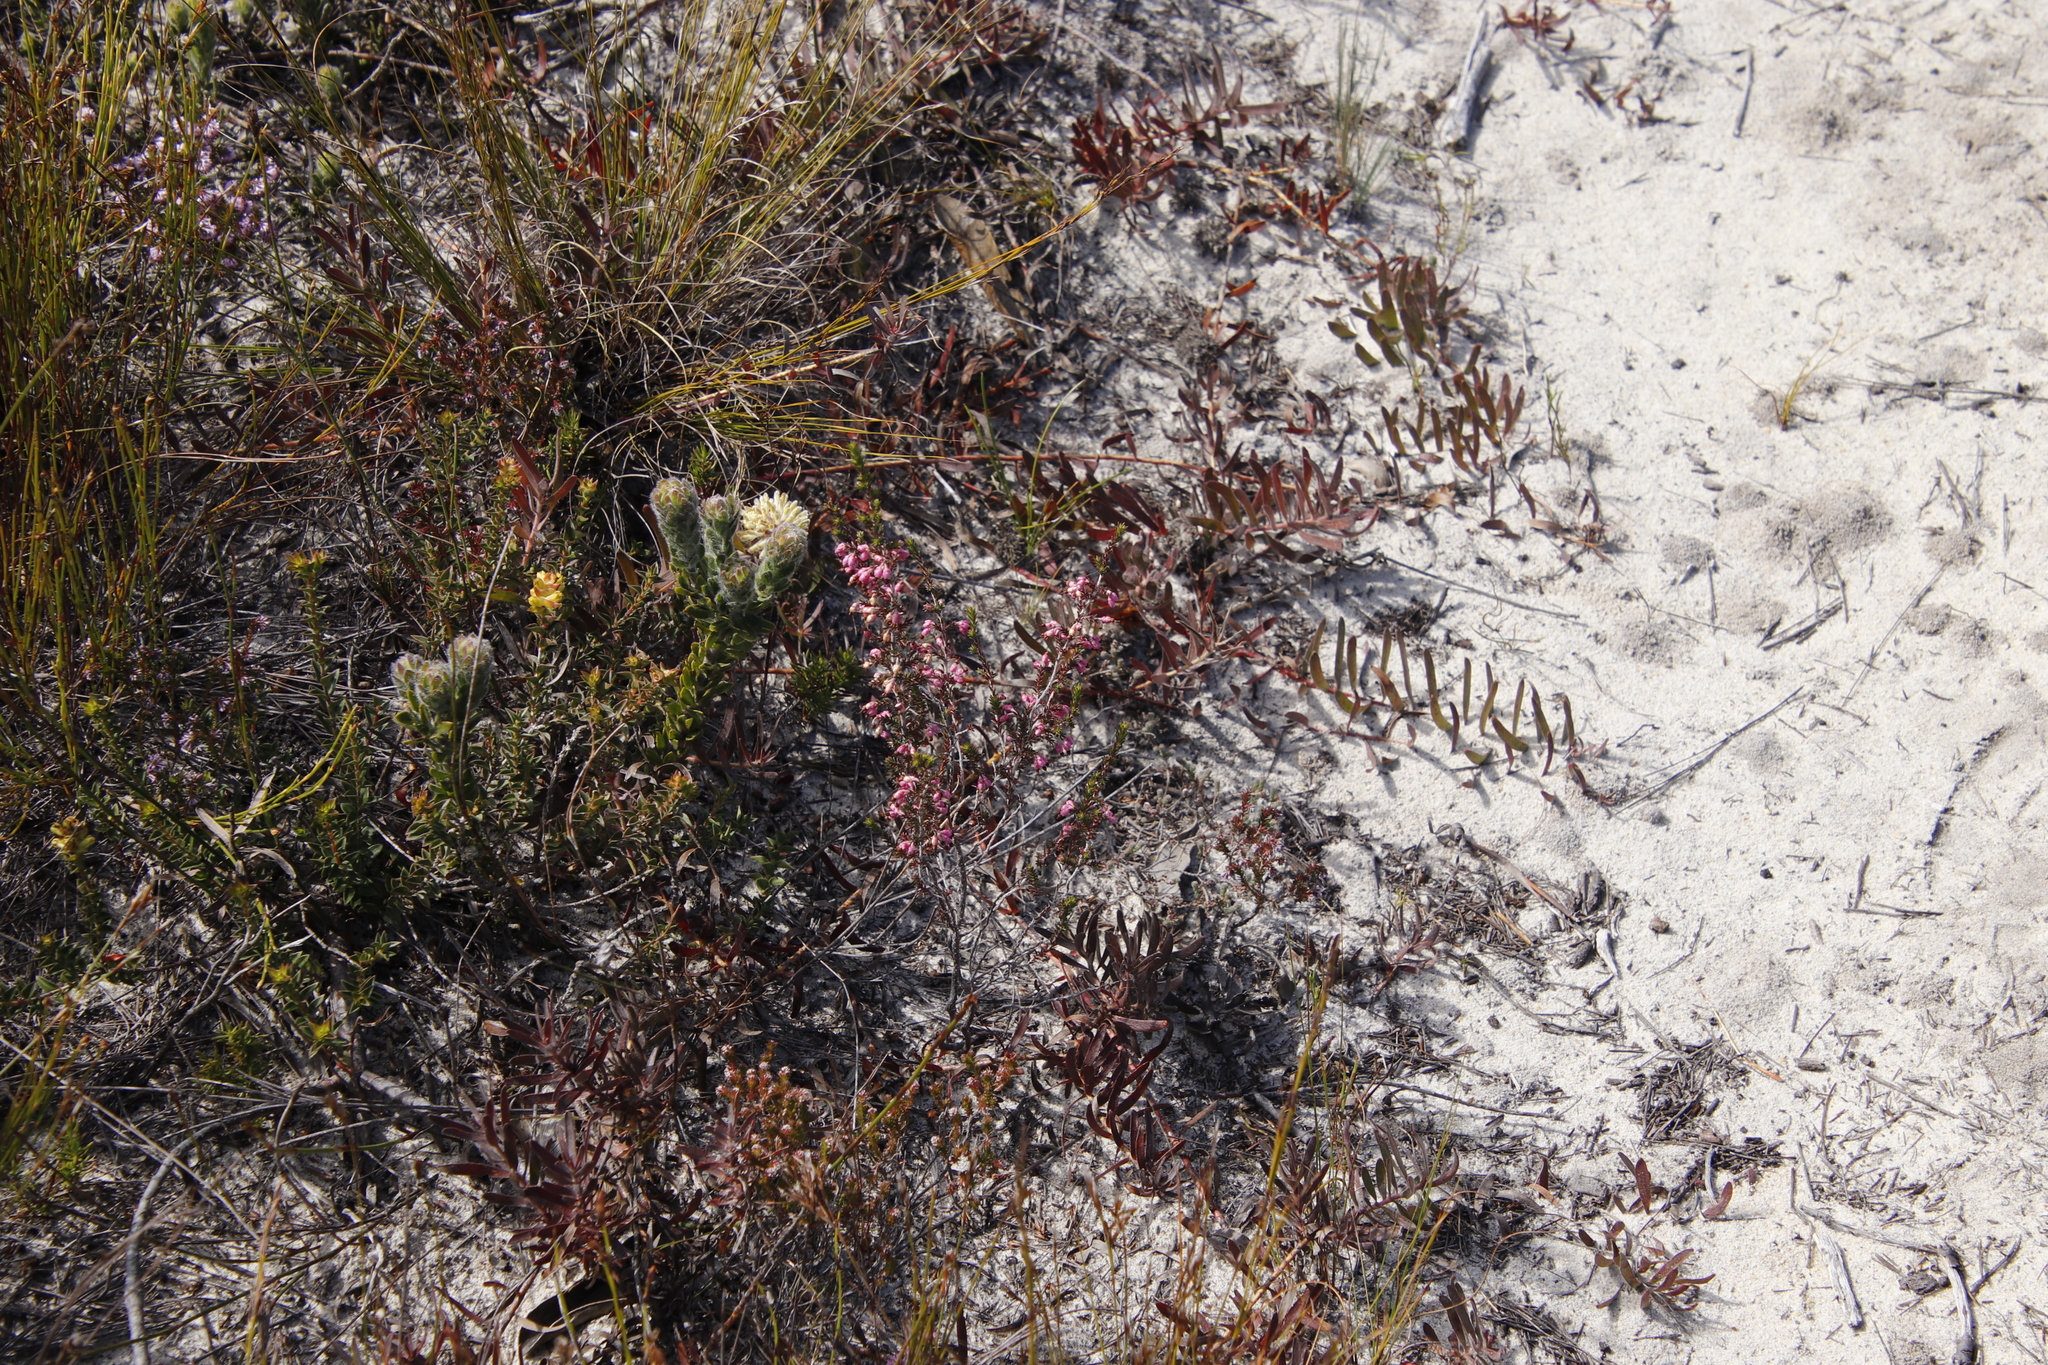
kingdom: Plantae
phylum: Tracheophyta
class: Magnoliopsida
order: Proteales
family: Proteaceae
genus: Leucospermum
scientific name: Leucospermum pedunculatum
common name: White-trailing pincushion
